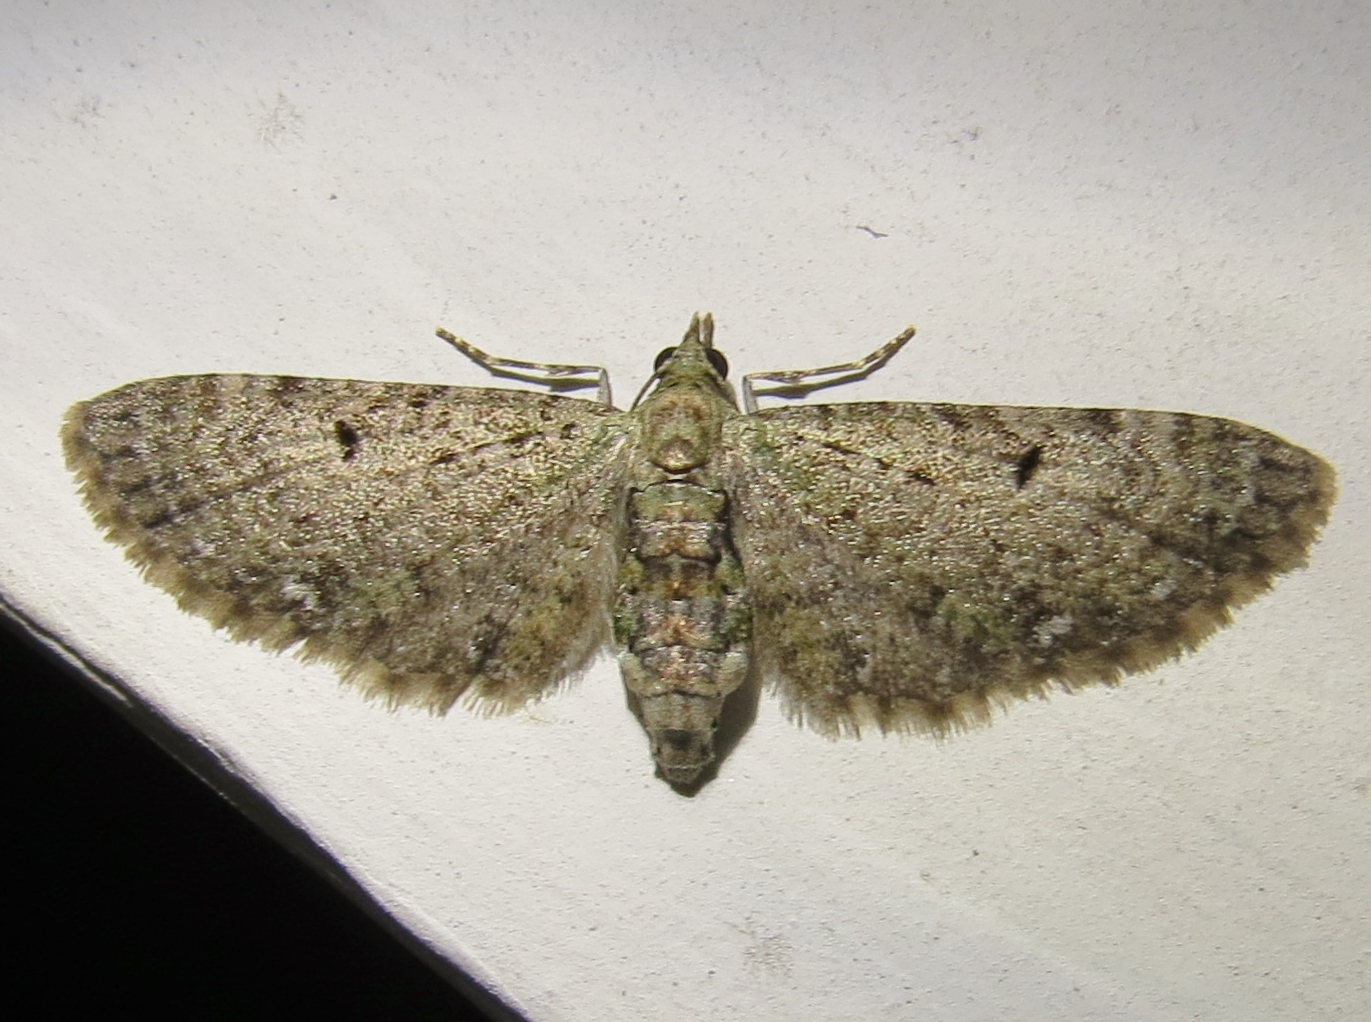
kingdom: Animalia
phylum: Arthropoda
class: Insecta
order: Lepidoptera
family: Geometridae
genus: Eupithecia
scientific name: Eupithecia miserulata
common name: Common eupithecia
